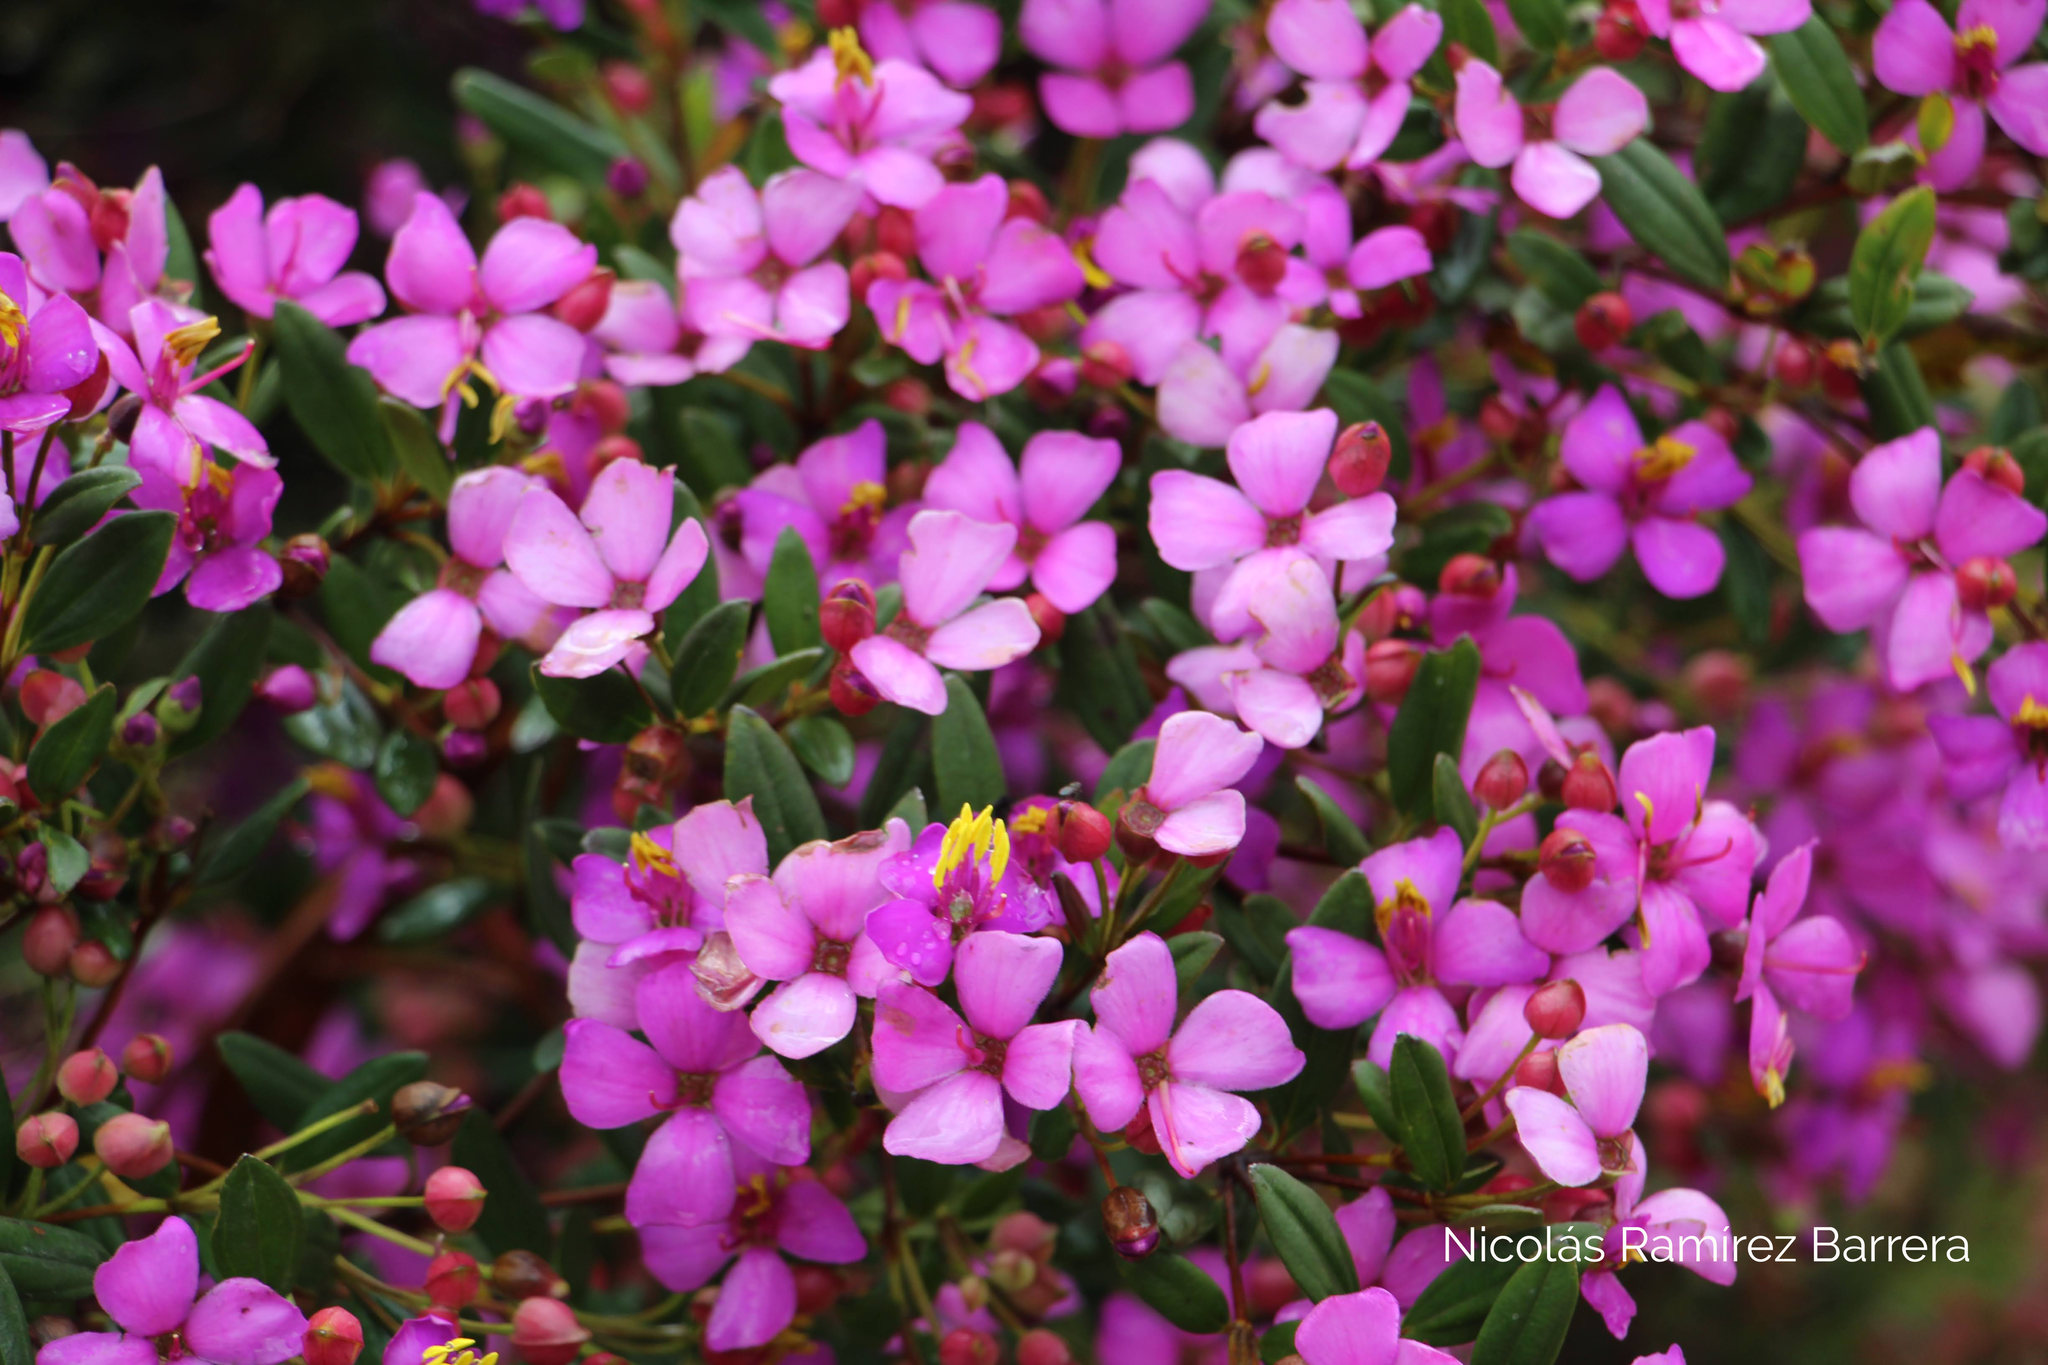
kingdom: Plantae
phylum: Tracheophyta
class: Magnoliopsida
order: Myrtales
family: Melastomataceae
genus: Bucquetia
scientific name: Bucquetia glutinosa
